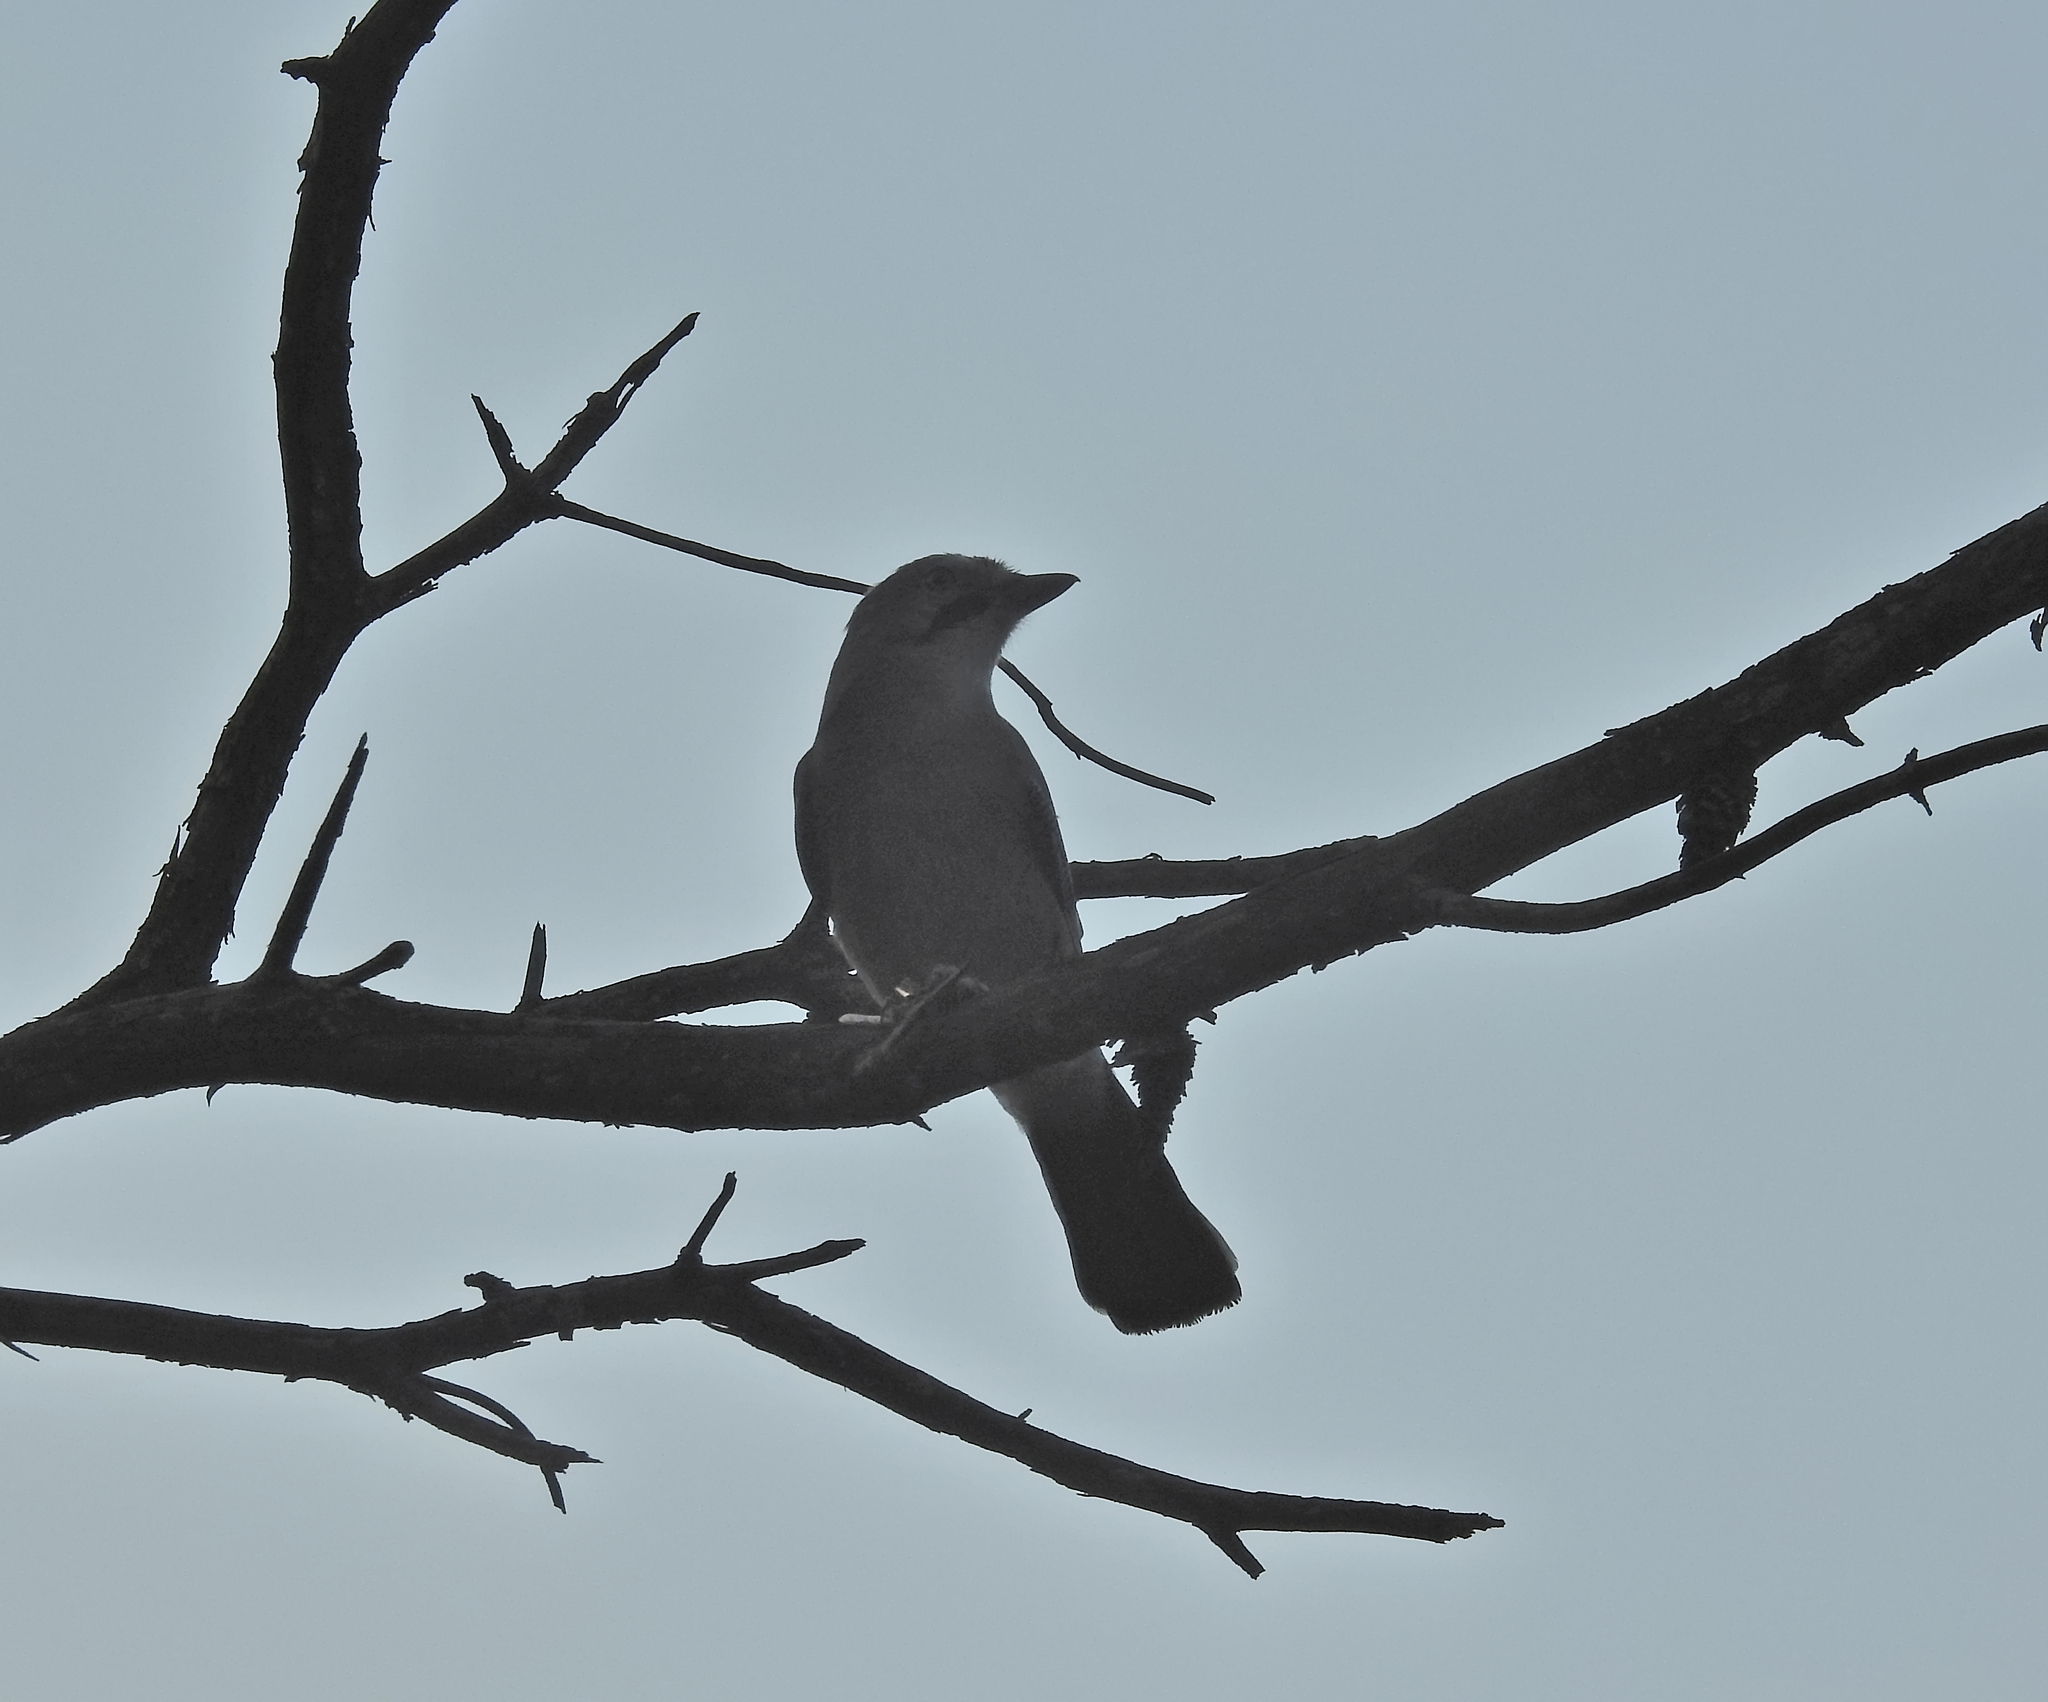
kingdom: Animalia
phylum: Chordata
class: Aves
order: Passeriformes
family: Corvidae
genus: Garrulus
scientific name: Garrulus glandarius
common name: Eurasian jay
